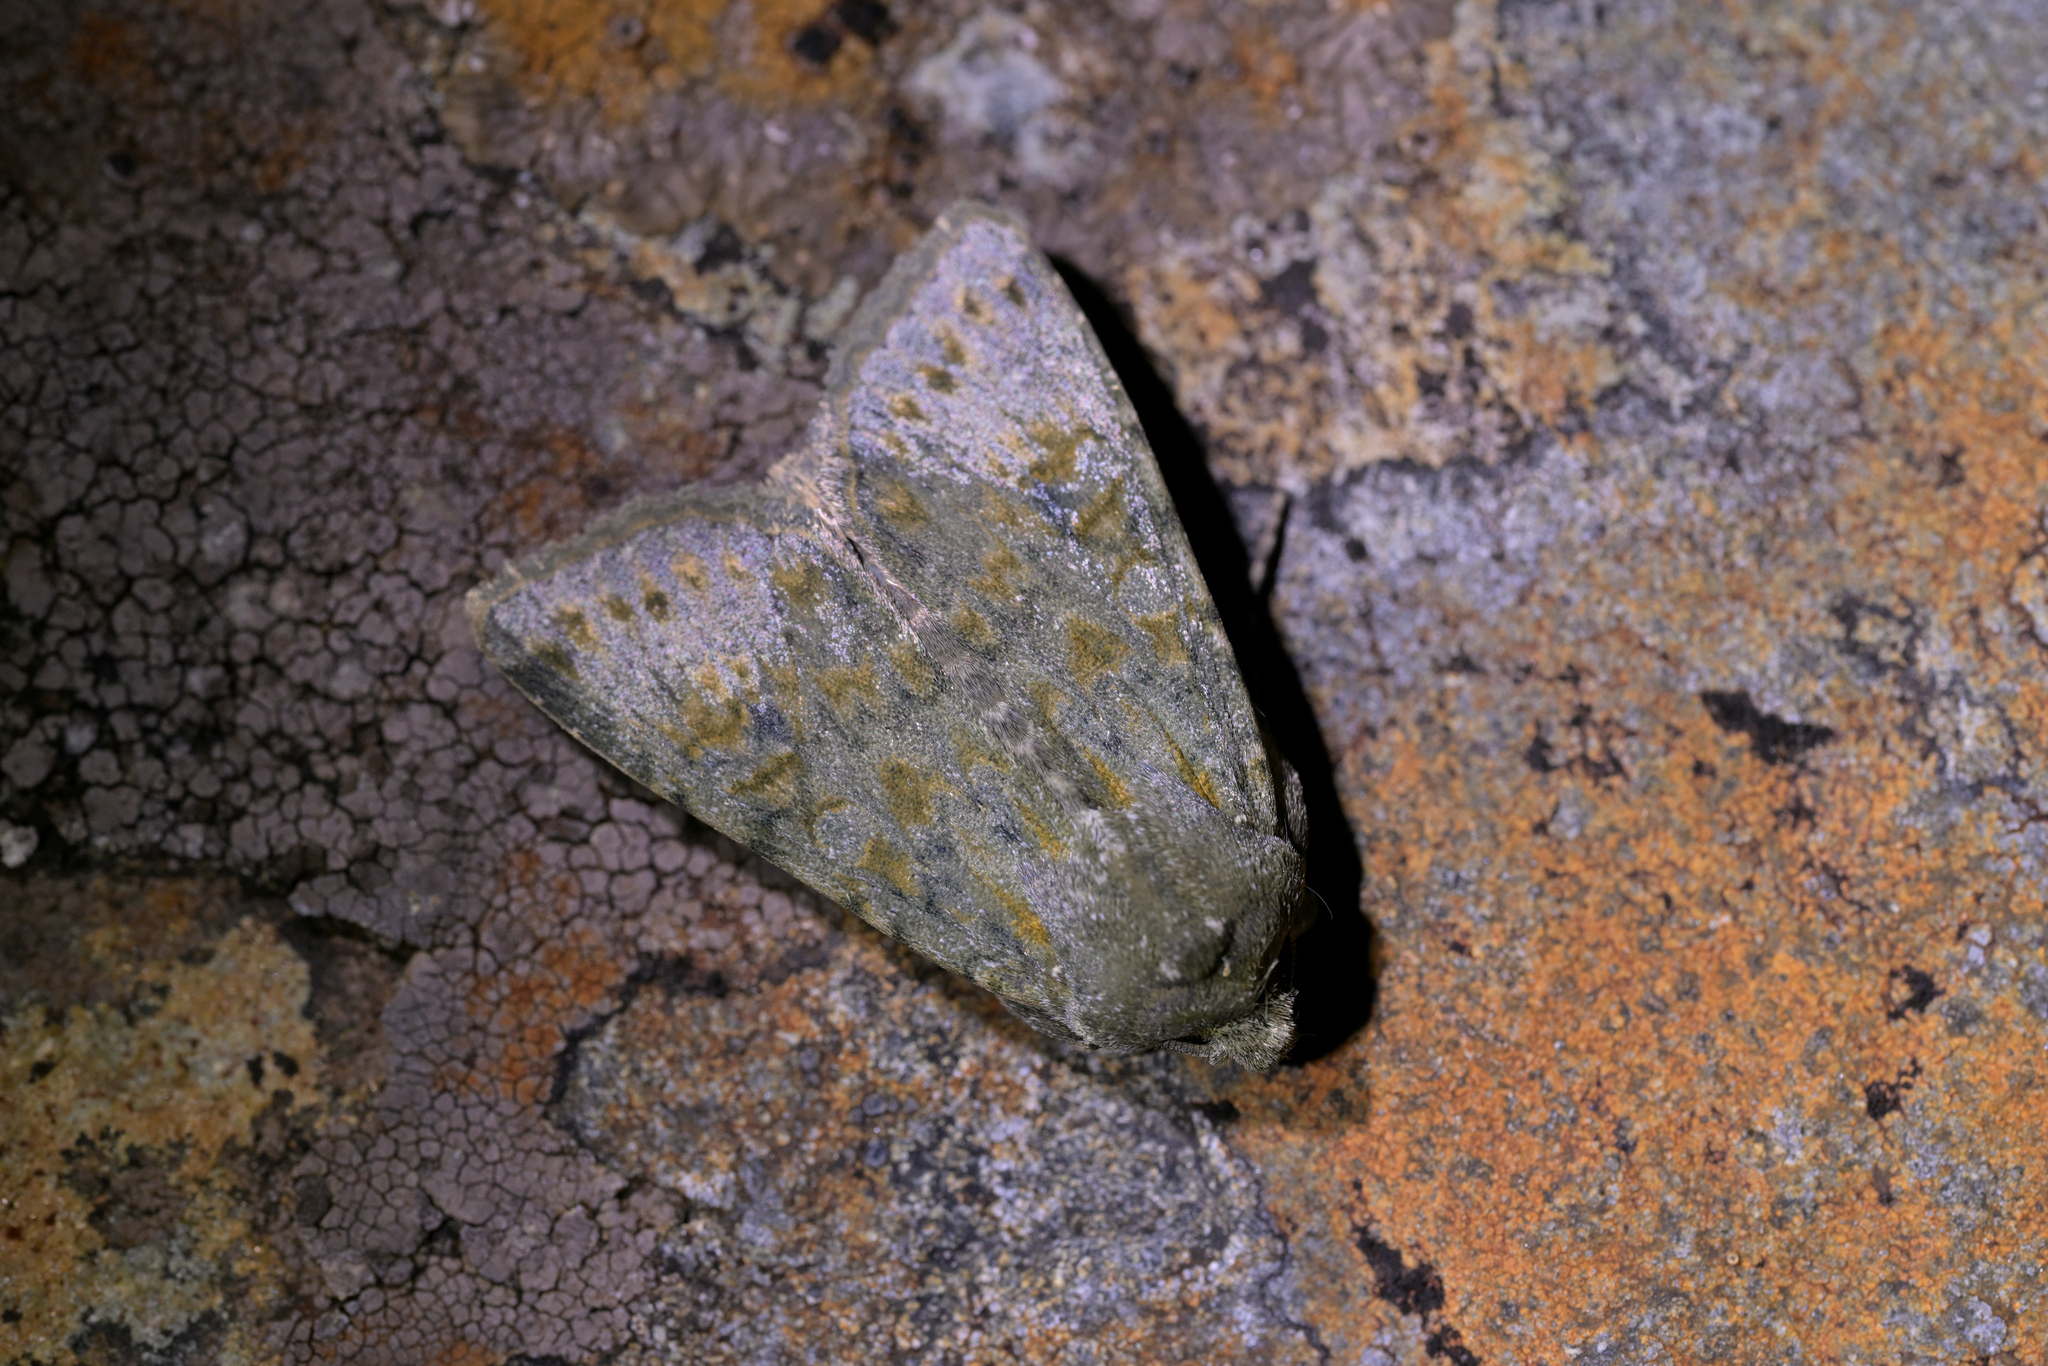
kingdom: Animalia
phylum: Arthropoda
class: Insecta
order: Lepidoptera
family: Noctuidae
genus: Ichneutica
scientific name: Ichneutica
